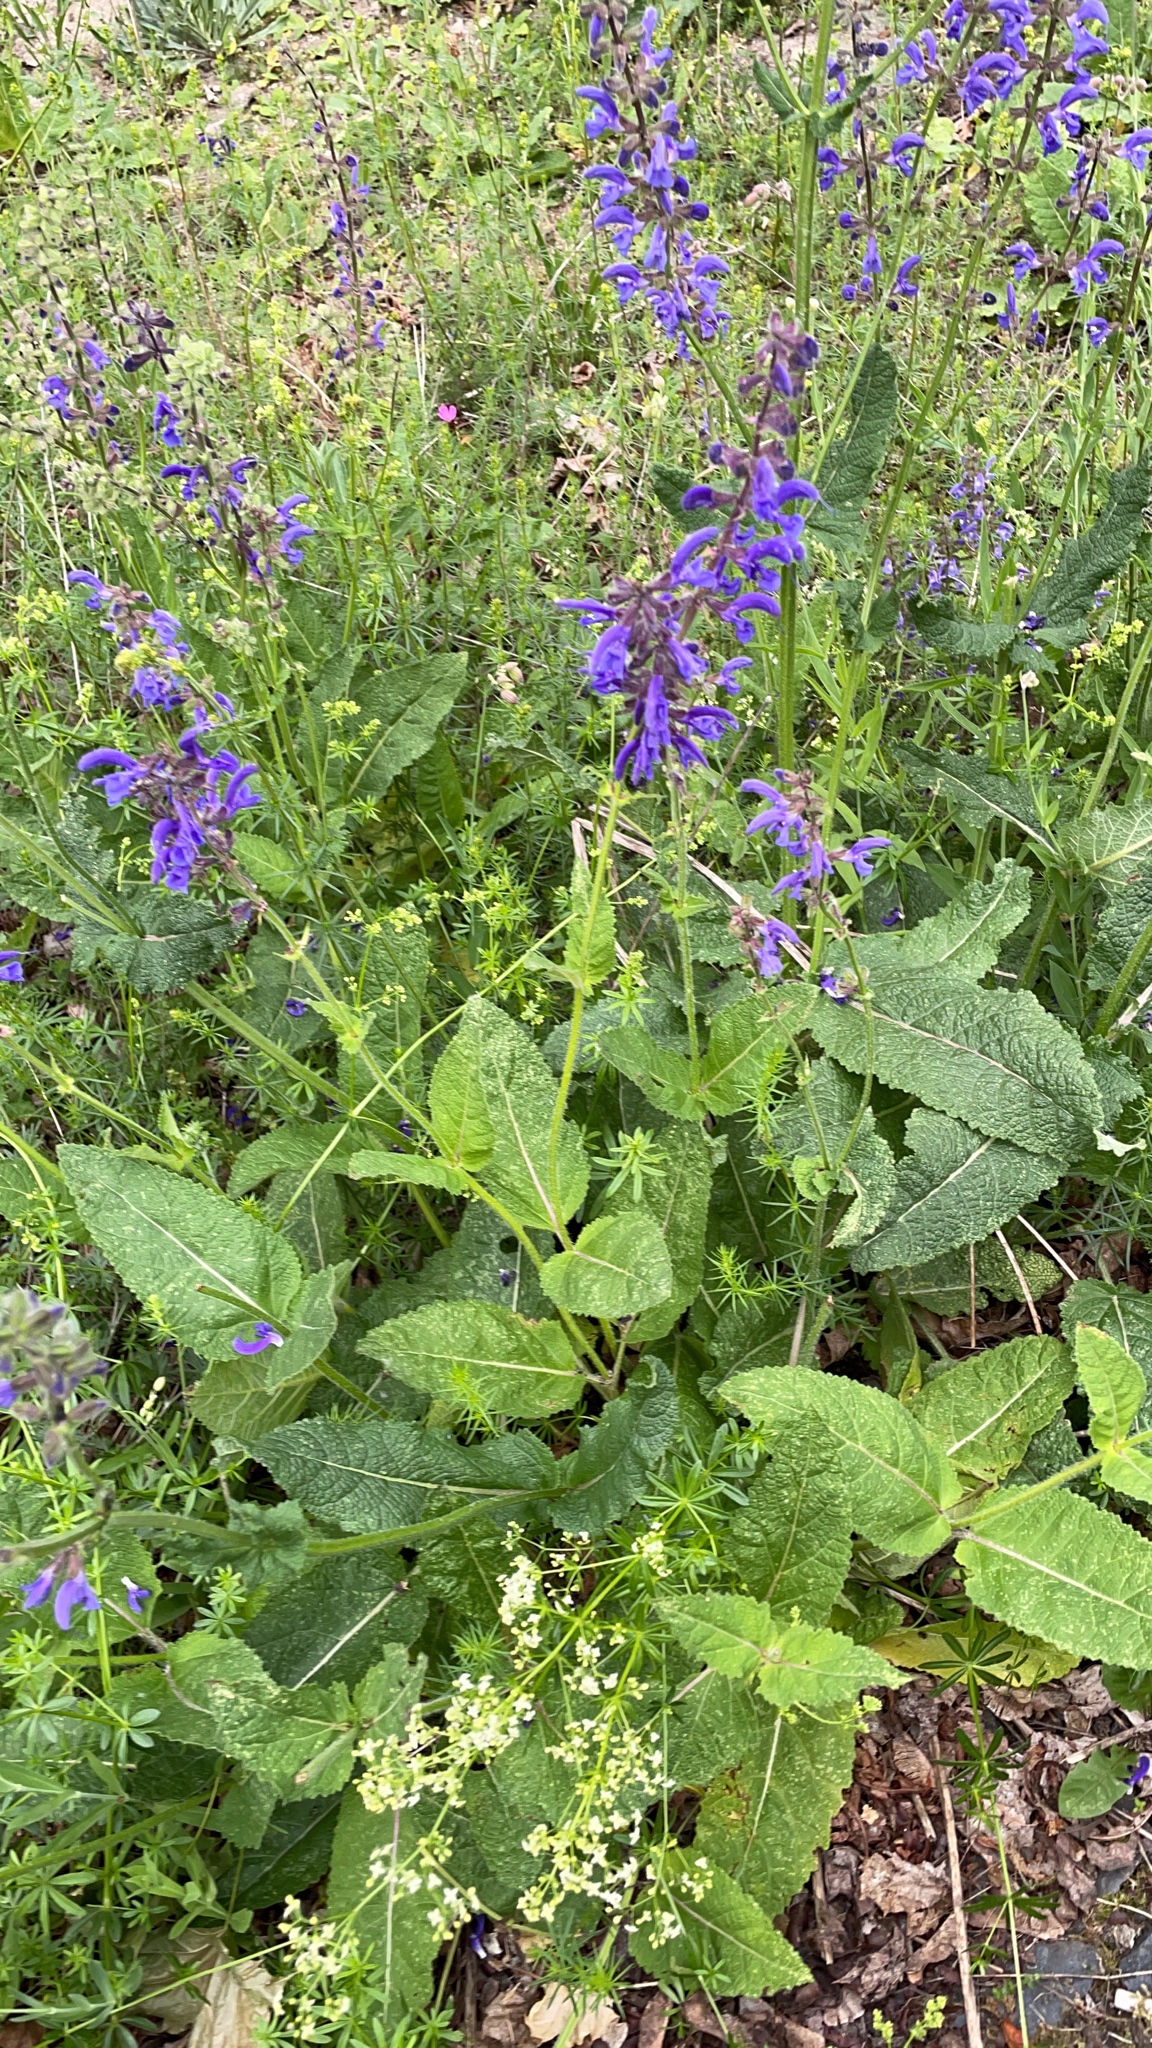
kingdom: Plantae
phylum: Tracheophyta
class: Magnoliopsida
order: Lamiales
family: Lamiaceae
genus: Salvia
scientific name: Salvia pratensis
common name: Meadow sage
